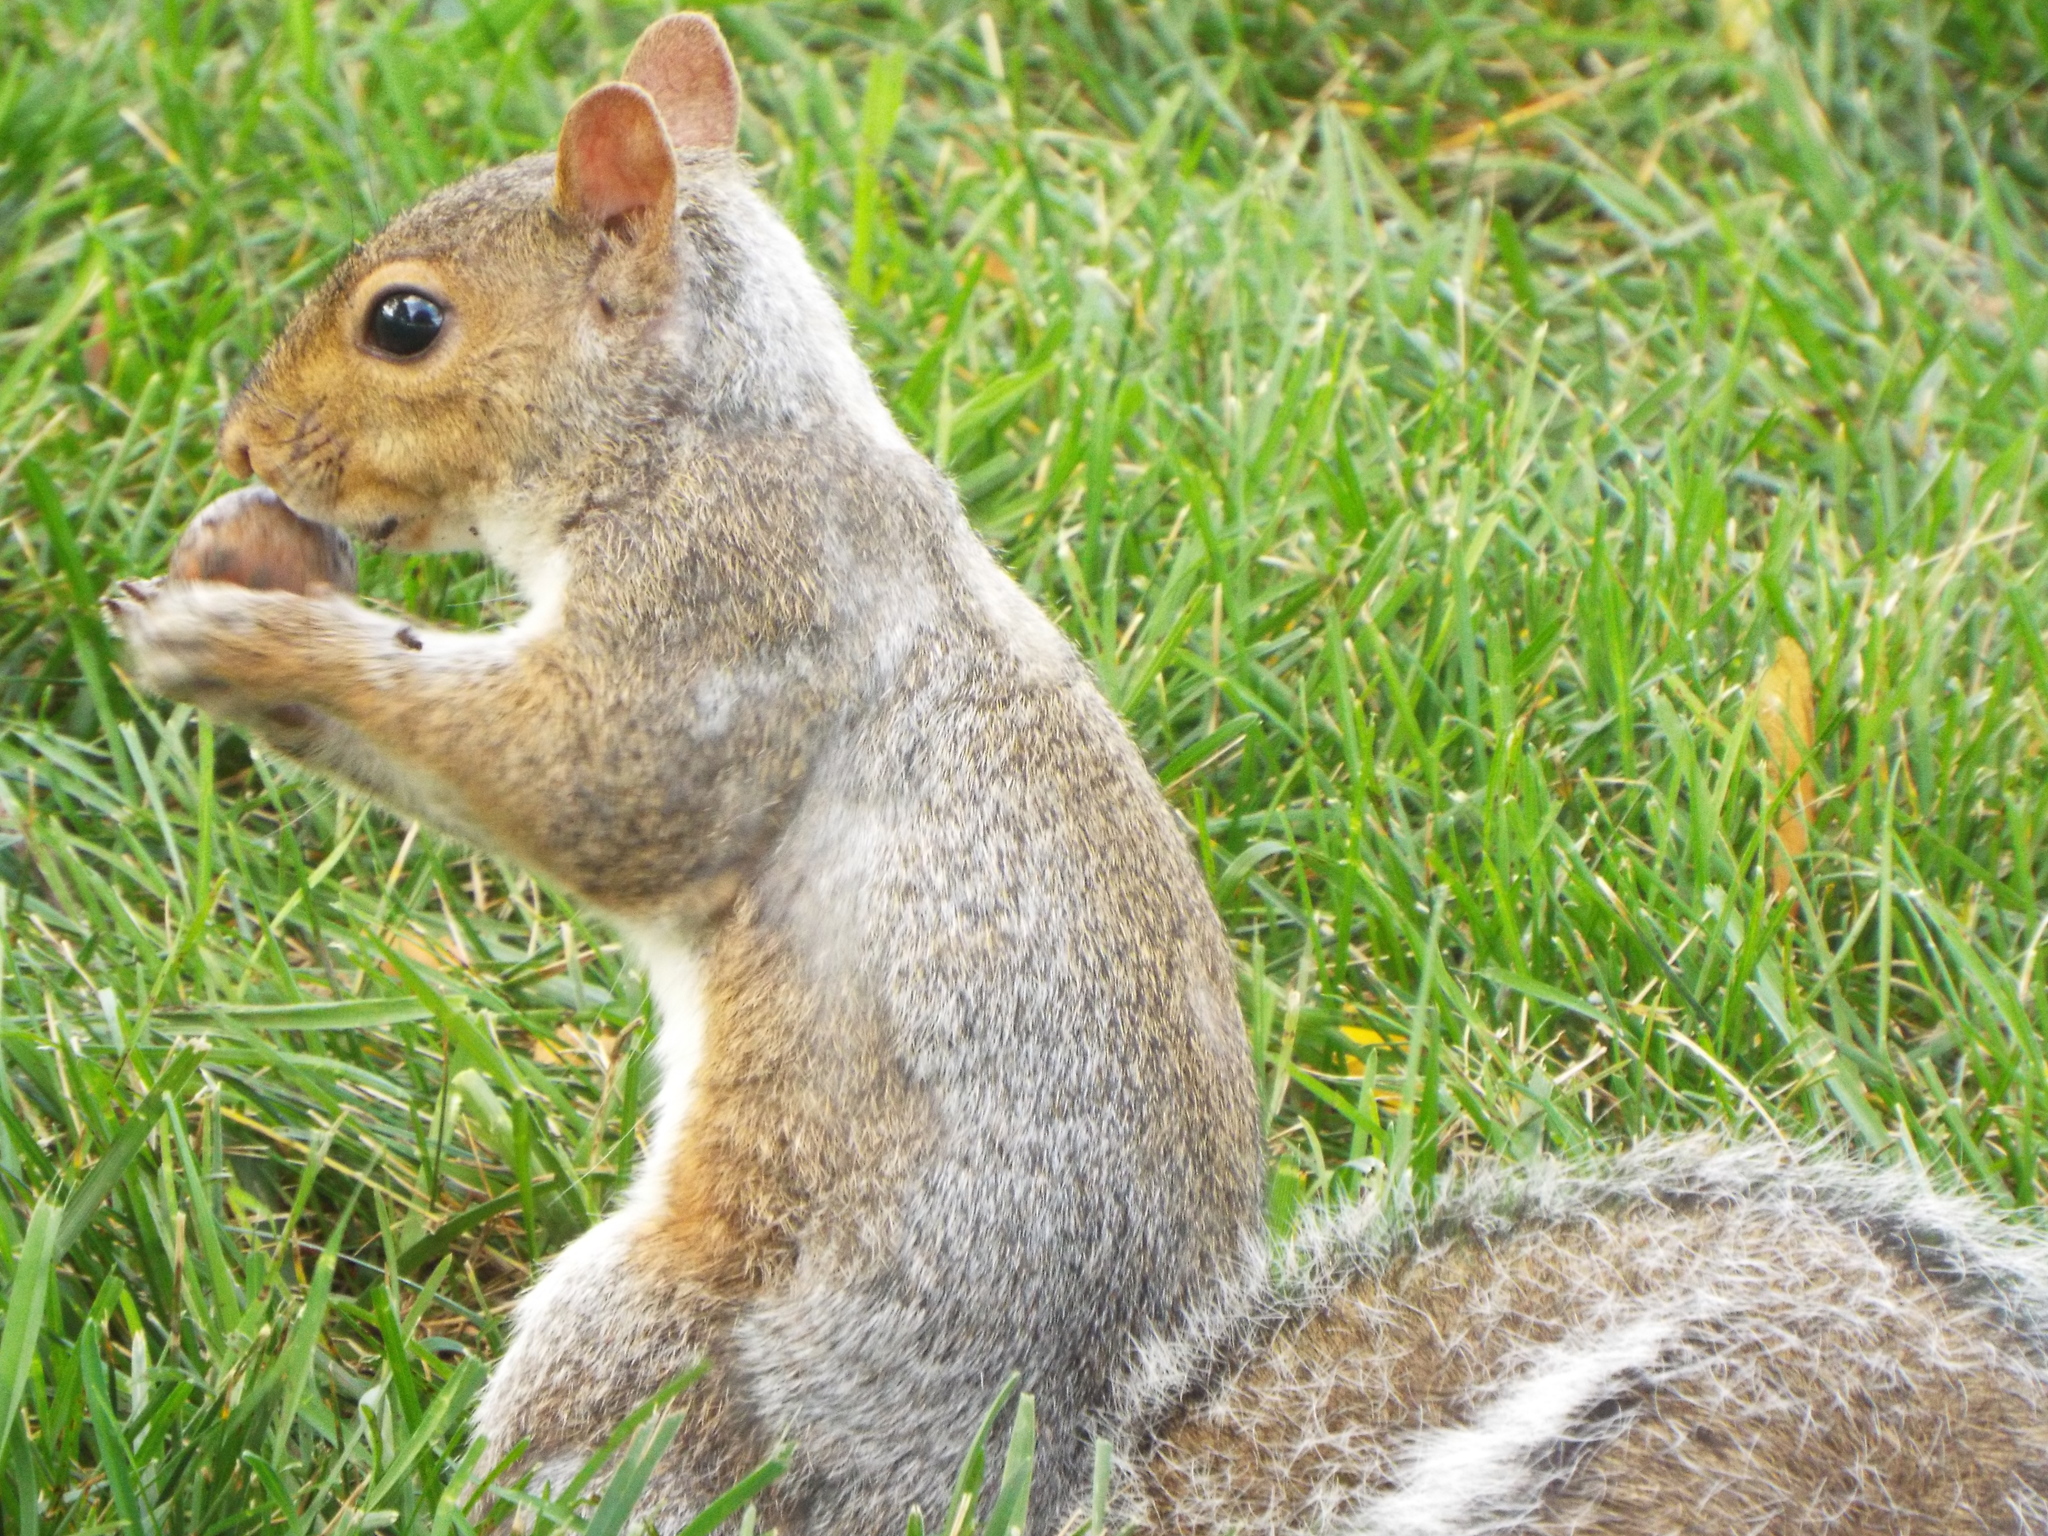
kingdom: Animalia
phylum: Chordata
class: Mammalia
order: Rodentia
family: Sciuridae
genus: Sciurus
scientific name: Sciurus carolinensis
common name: Eastern gray squirrel
